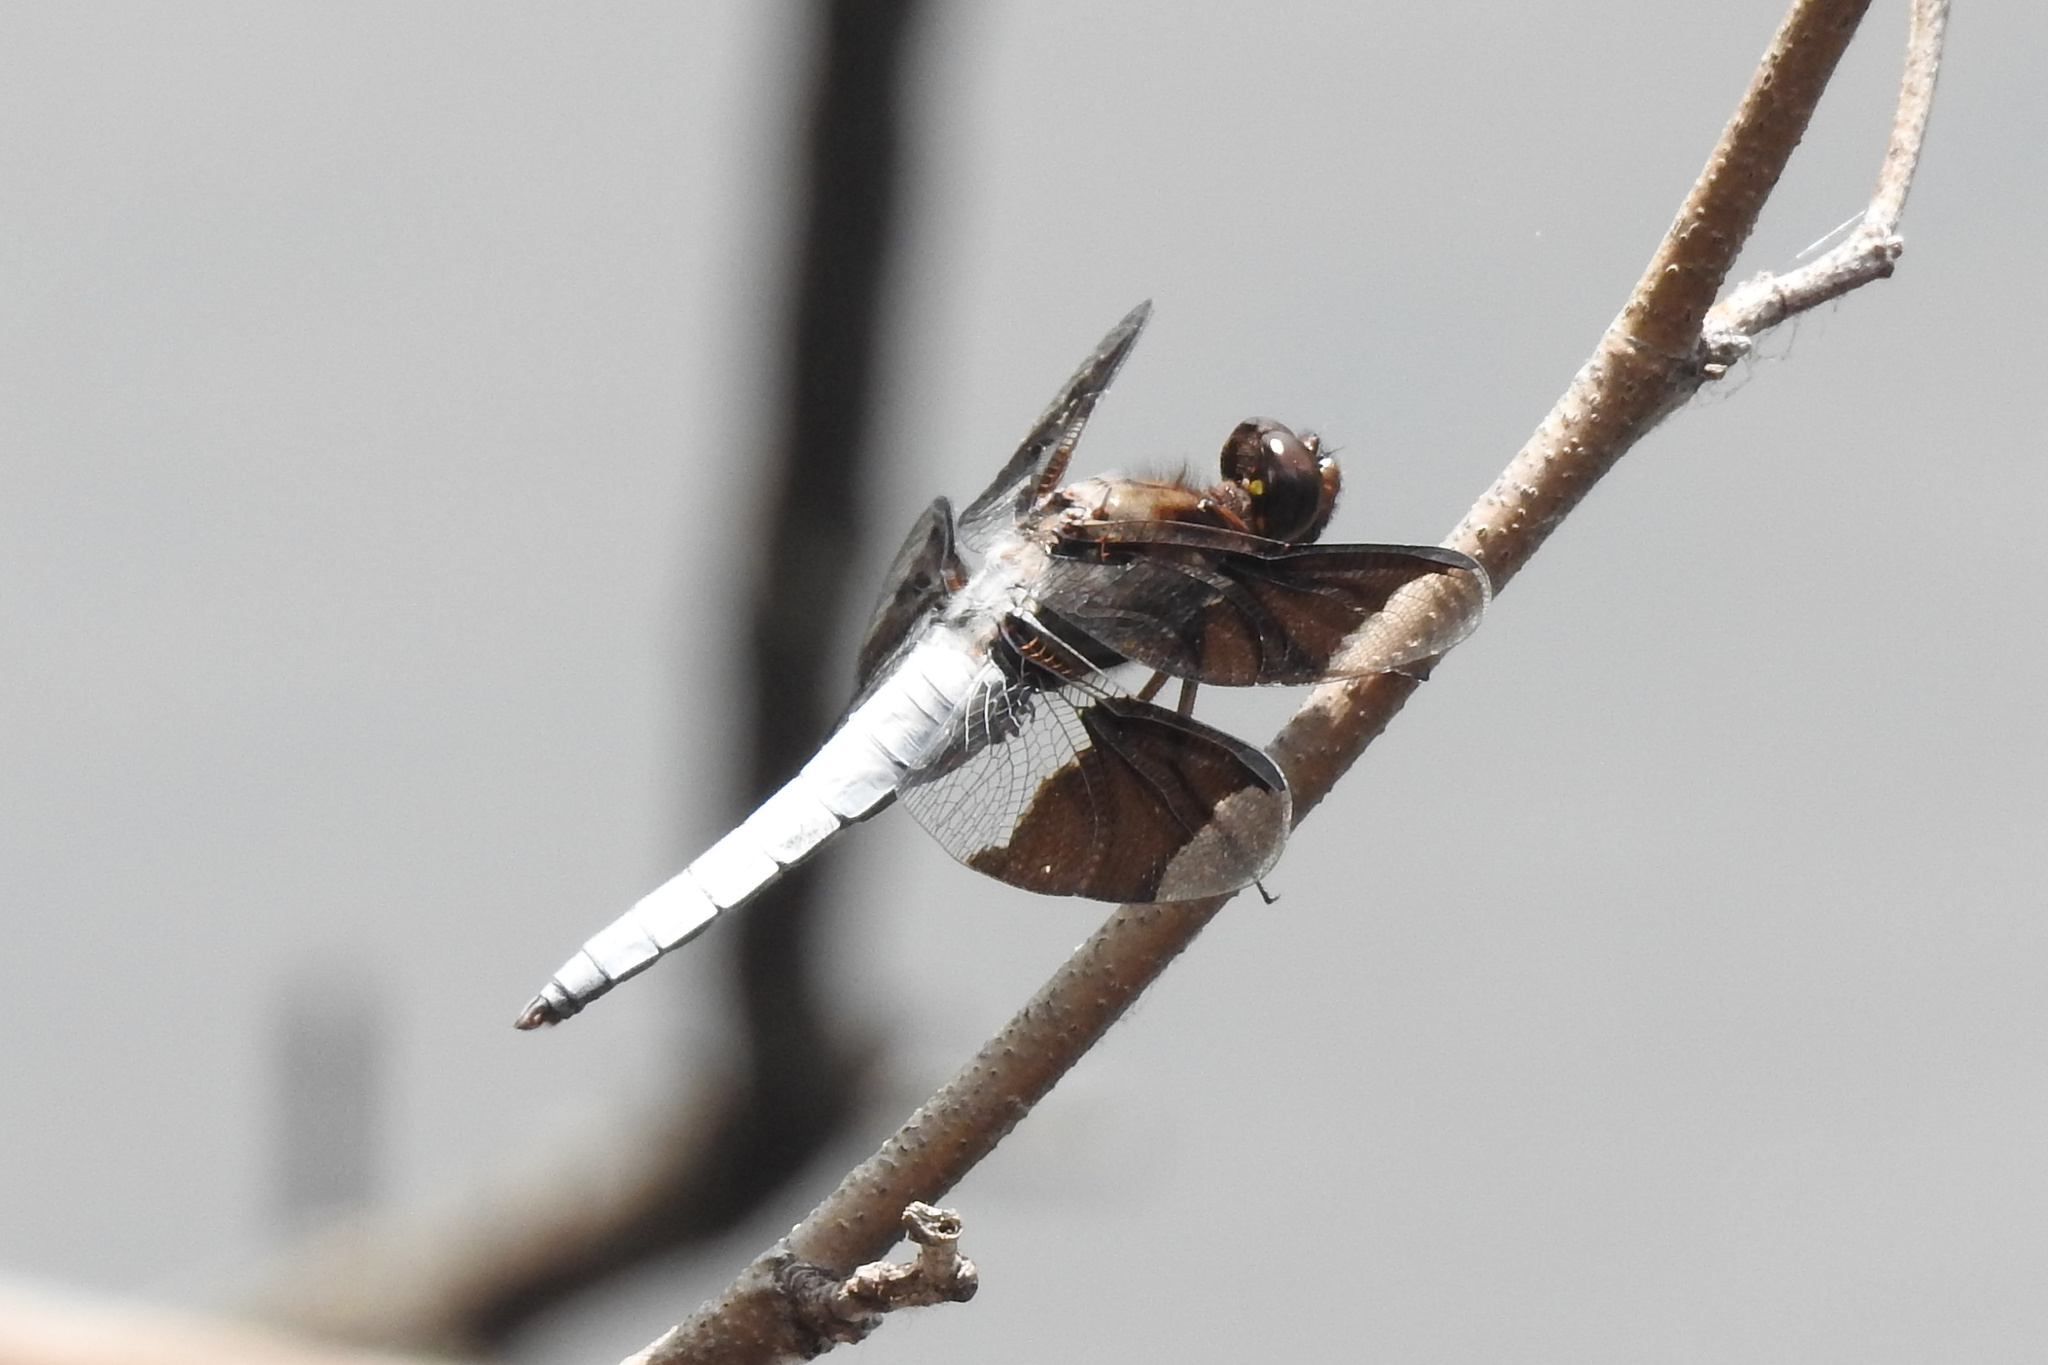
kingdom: Animalia
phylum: Arthropoda
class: Insecta
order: Odonata
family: Libellulidae
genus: Plathemis
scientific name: Plathemis lydia
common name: Common whitetail
